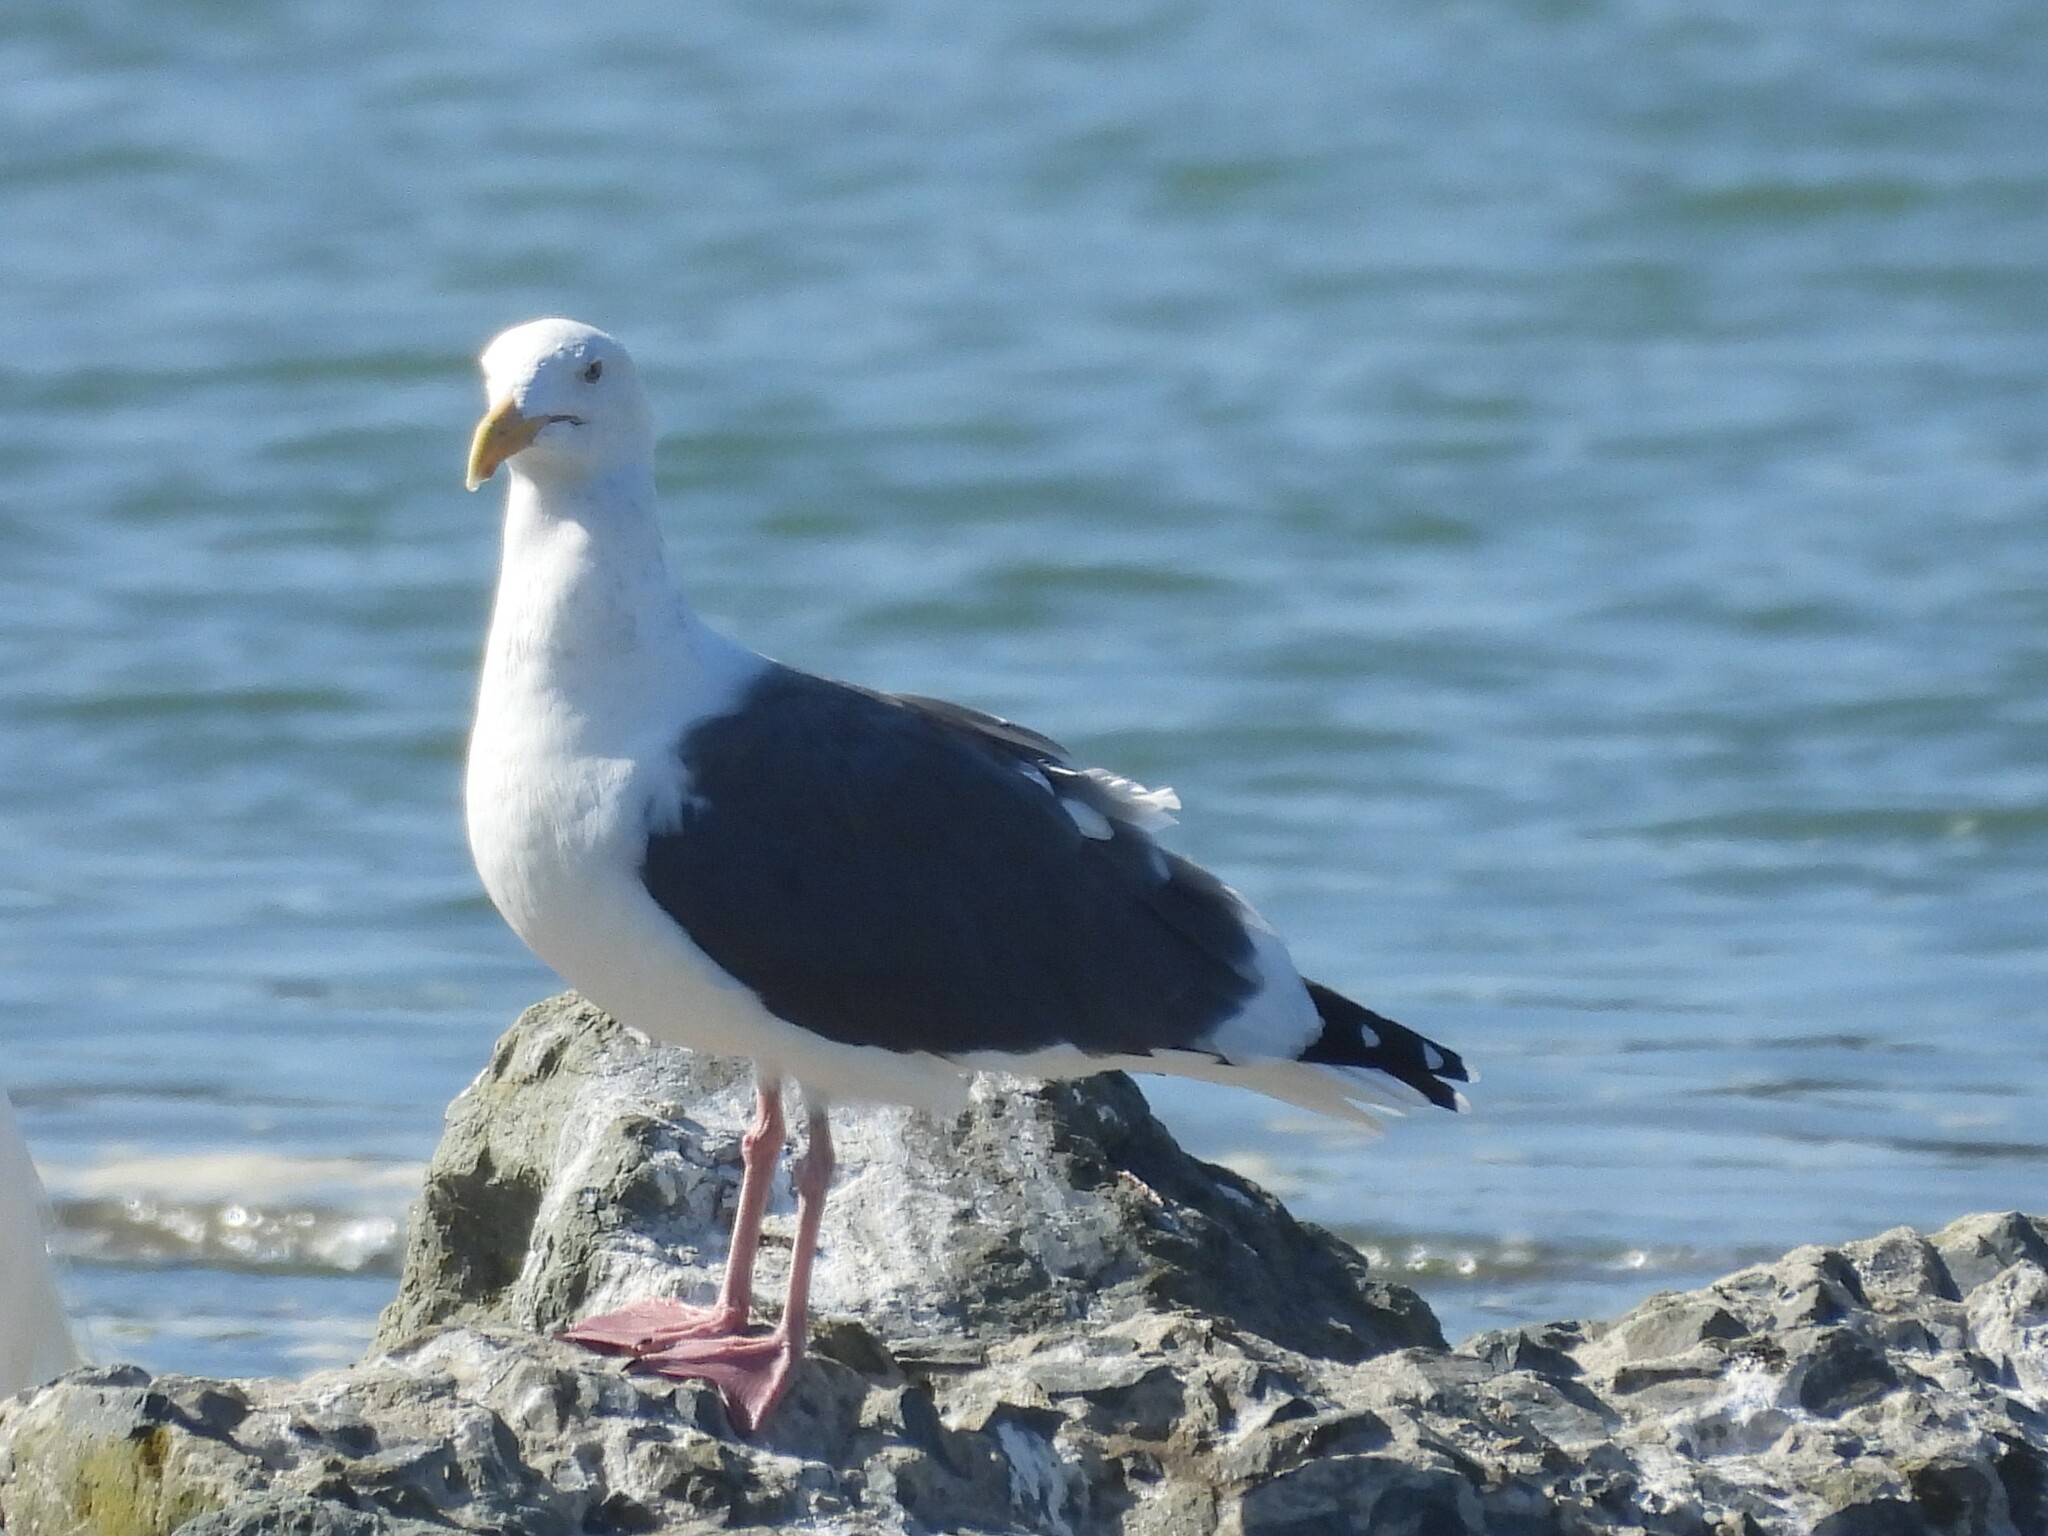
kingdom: Animalia
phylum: Chordata
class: Aves
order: Charadriiformes
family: Laridae
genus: Larus
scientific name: Larus occidentalis
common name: Western gull
